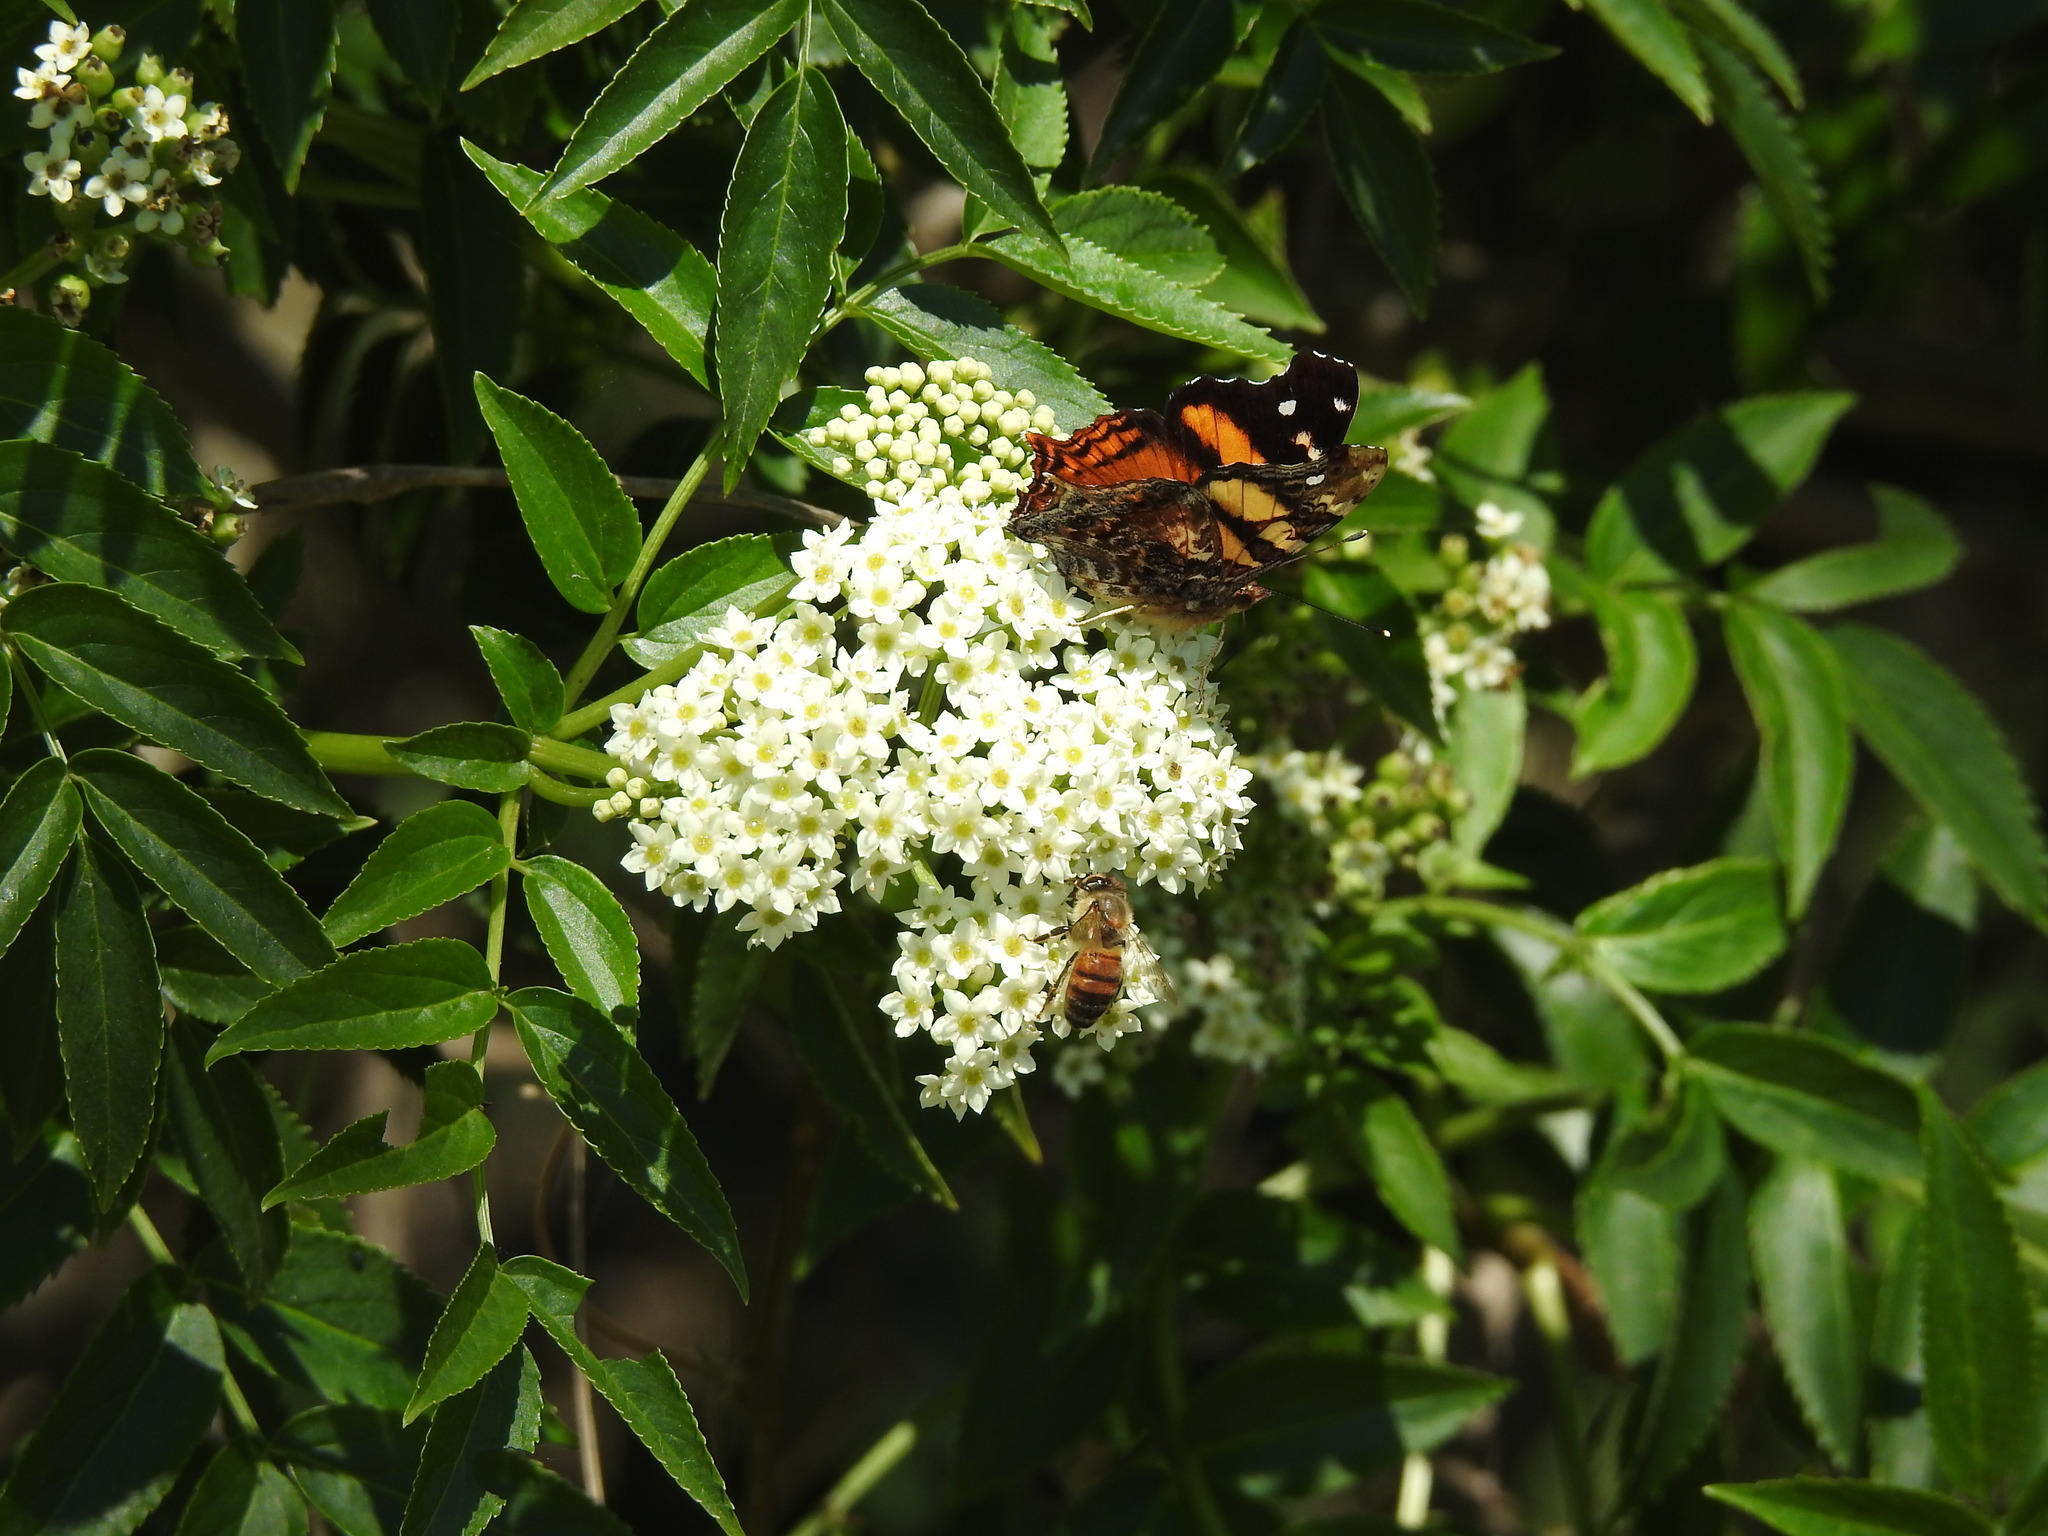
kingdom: Animalia
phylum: Arthropoda
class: Insecta
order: Lepidoptera
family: Nymphalidae
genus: Hypanartia
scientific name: Hypanartia bella
